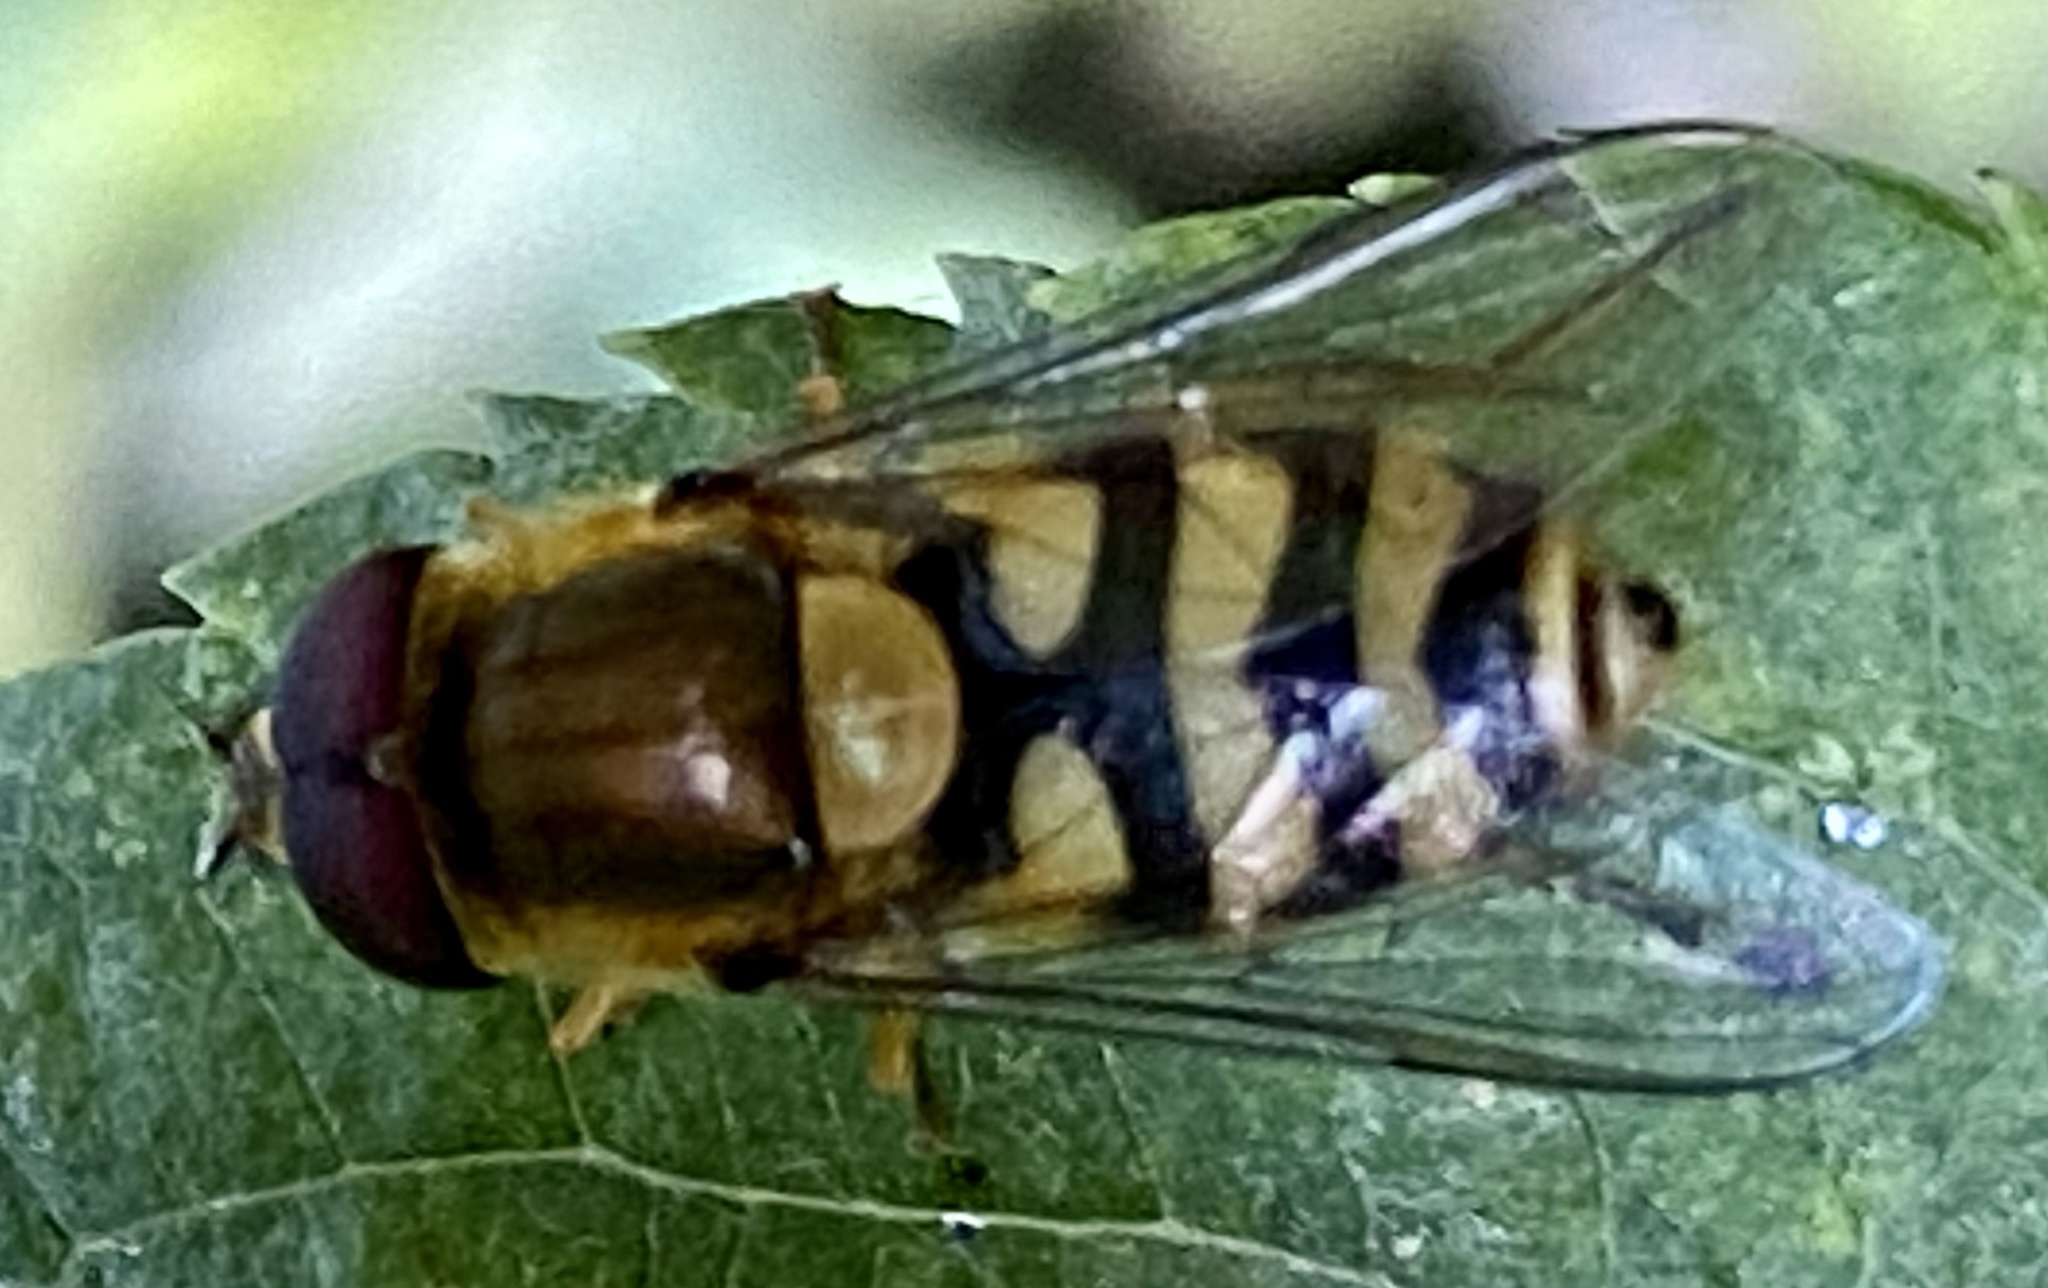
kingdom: Animalia
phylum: Arthropoda
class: Insecta
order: Diptera
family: Syrphidae
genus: Syrphus
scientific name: Syrphus
